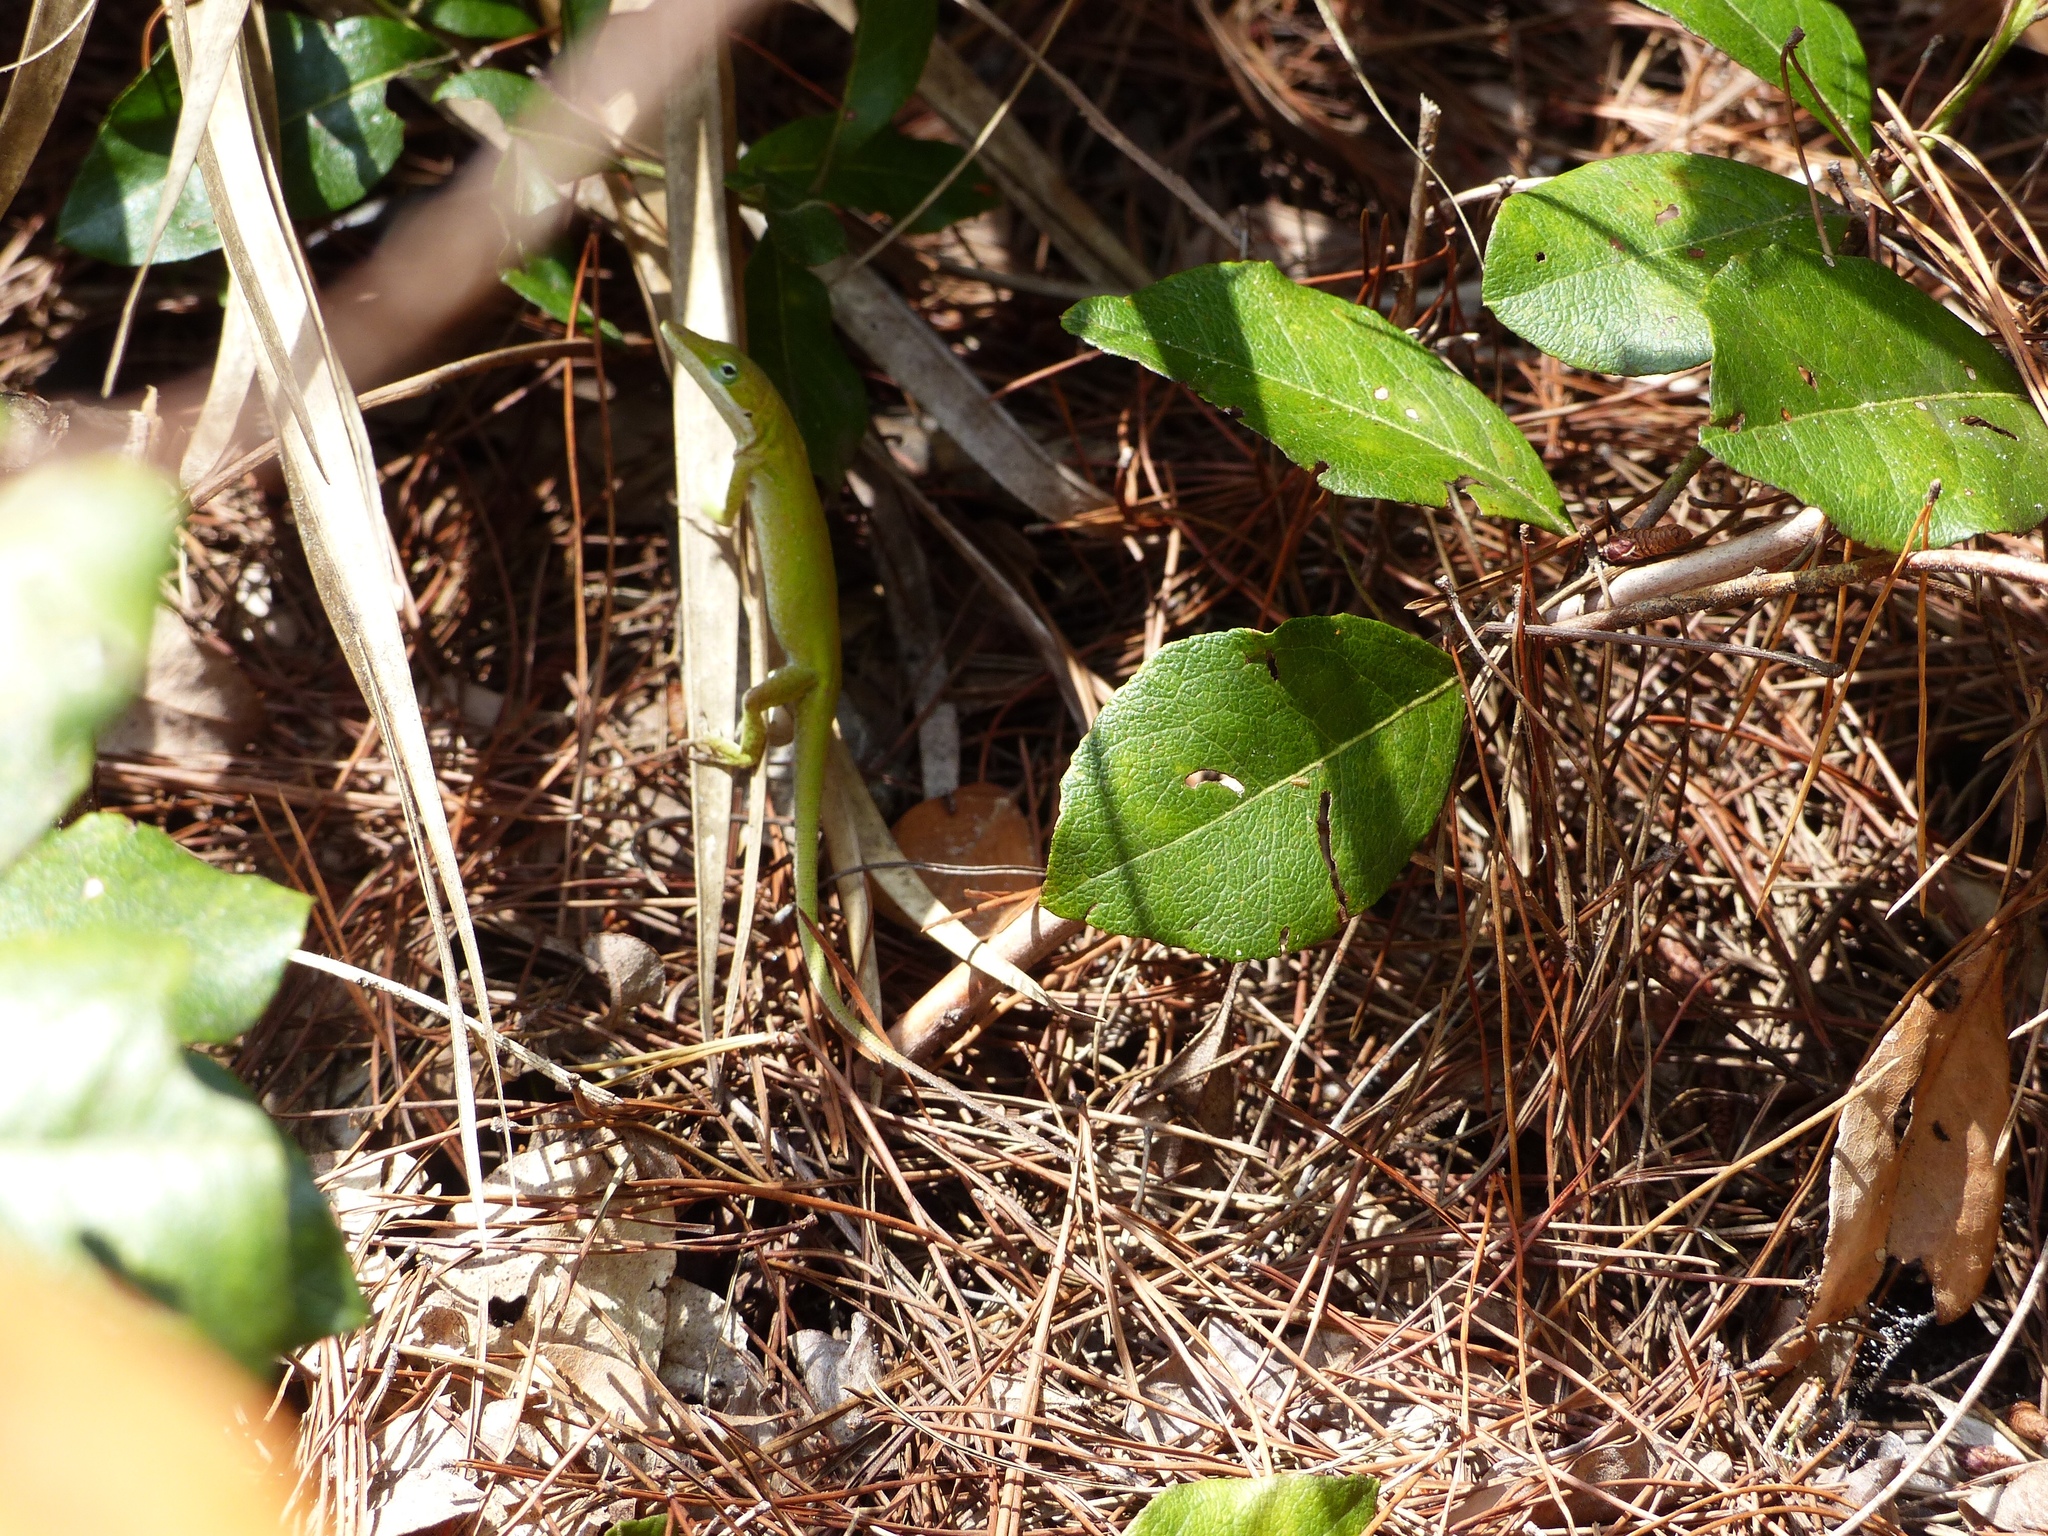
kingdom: Animalia
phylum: Chordata
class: Squamata
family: Dactyloidae
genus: Anolis
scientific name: Anolis carolinensis
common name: Green anole
